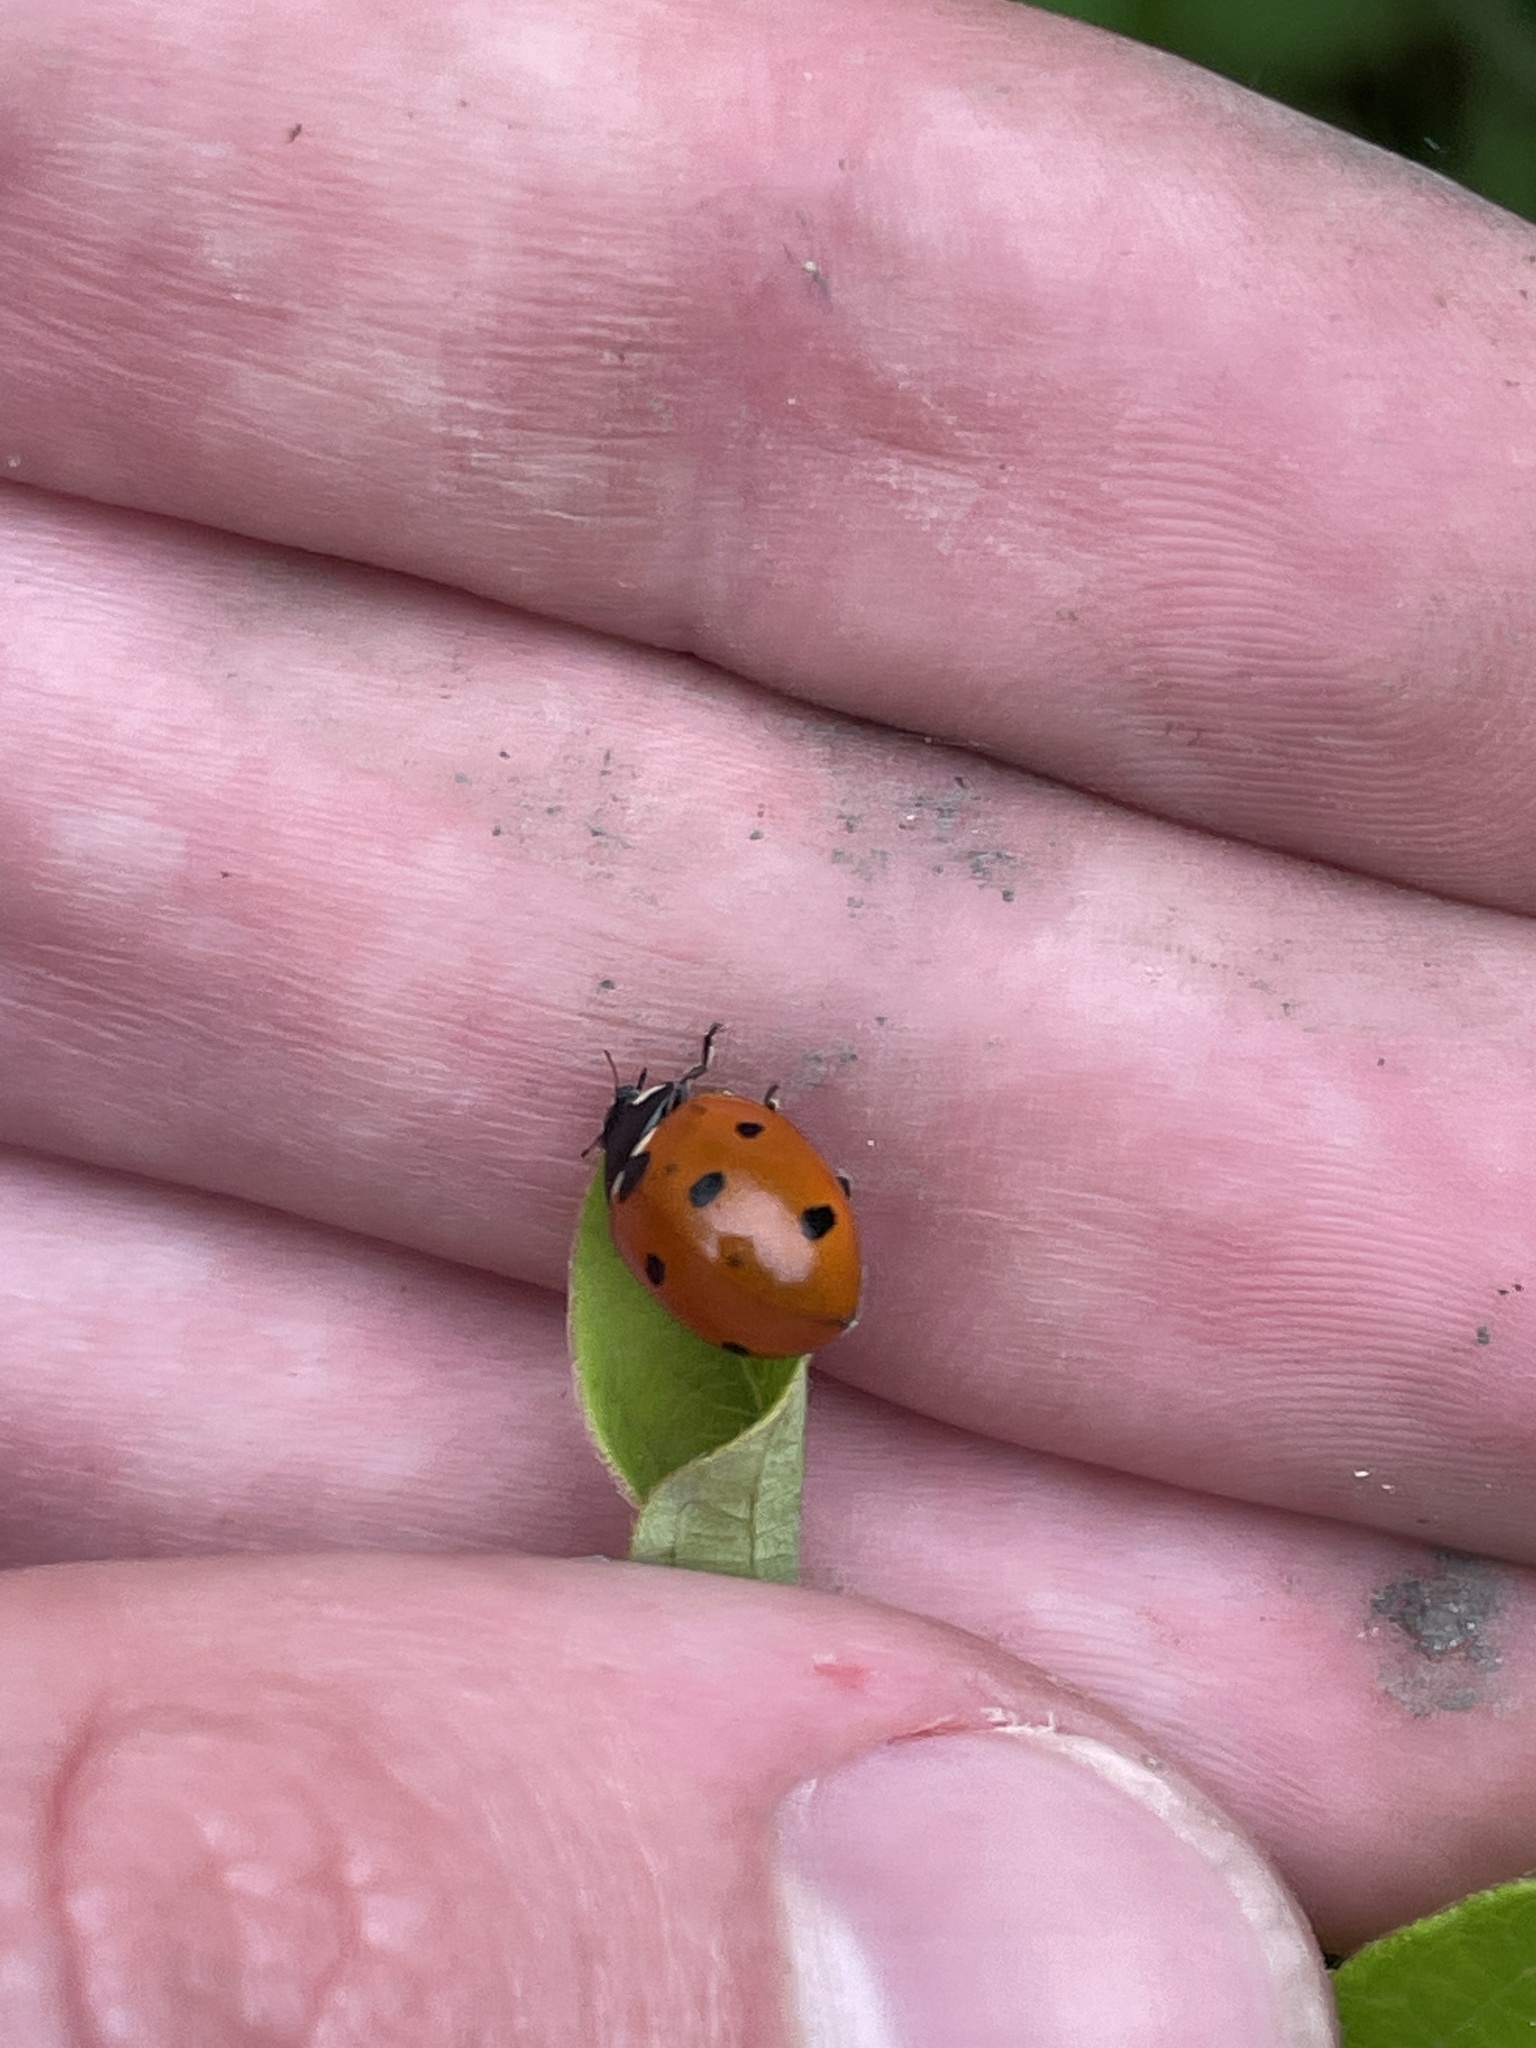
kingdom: Animalia
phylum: Arthropoda
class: Insecta
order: Coleoptera
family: Coccinellidae
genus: Coccinella
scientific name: Coccinella septempunctata
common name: Sevenspotted lady beetle
